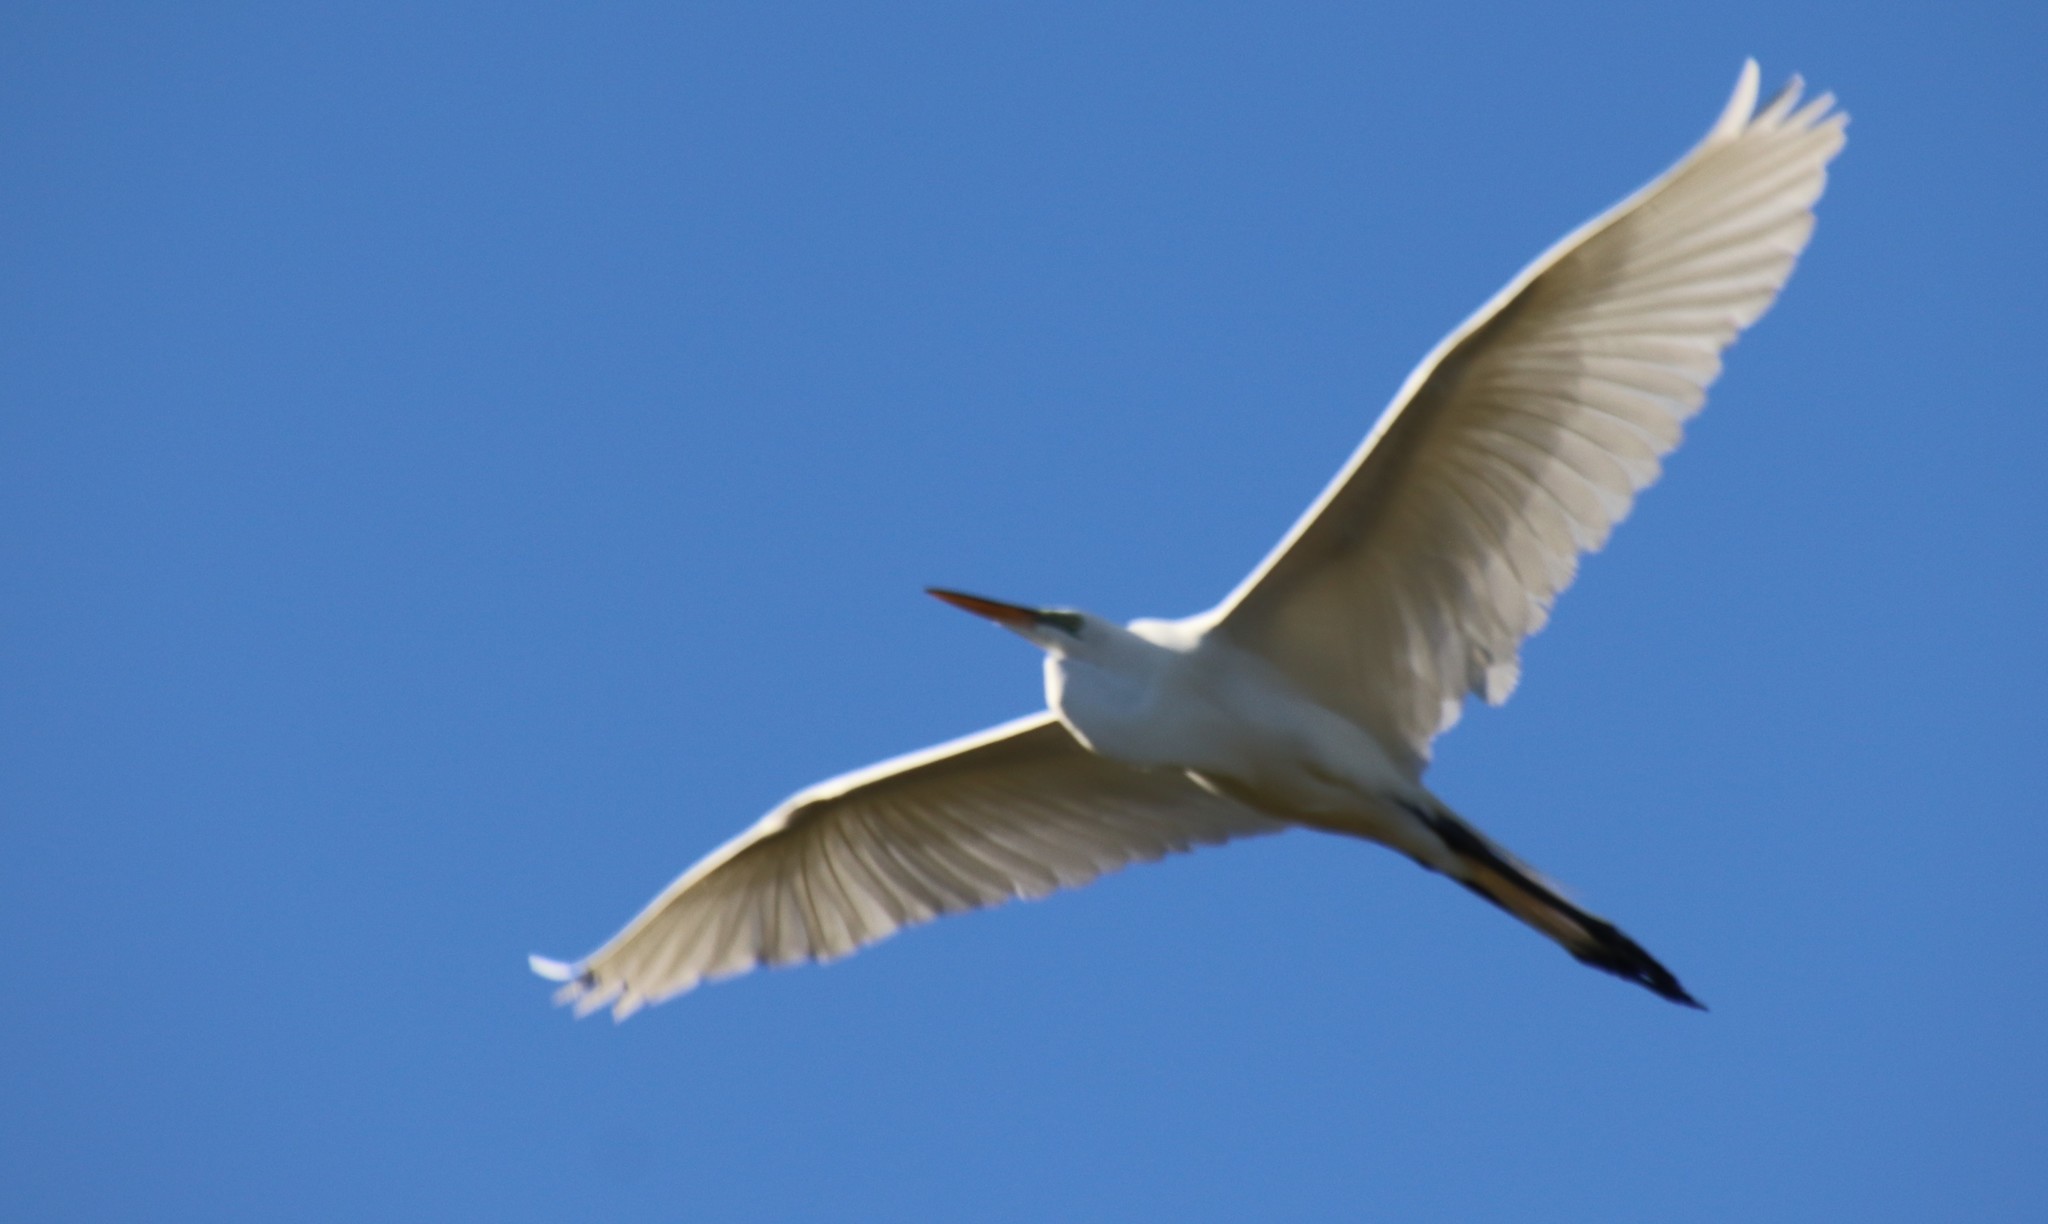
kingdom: Animalia
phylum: Chordata
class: Aves
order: Pelecaniformes
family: Ardeidae
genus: Ardea
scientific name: Ardea alba
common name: Great egret
